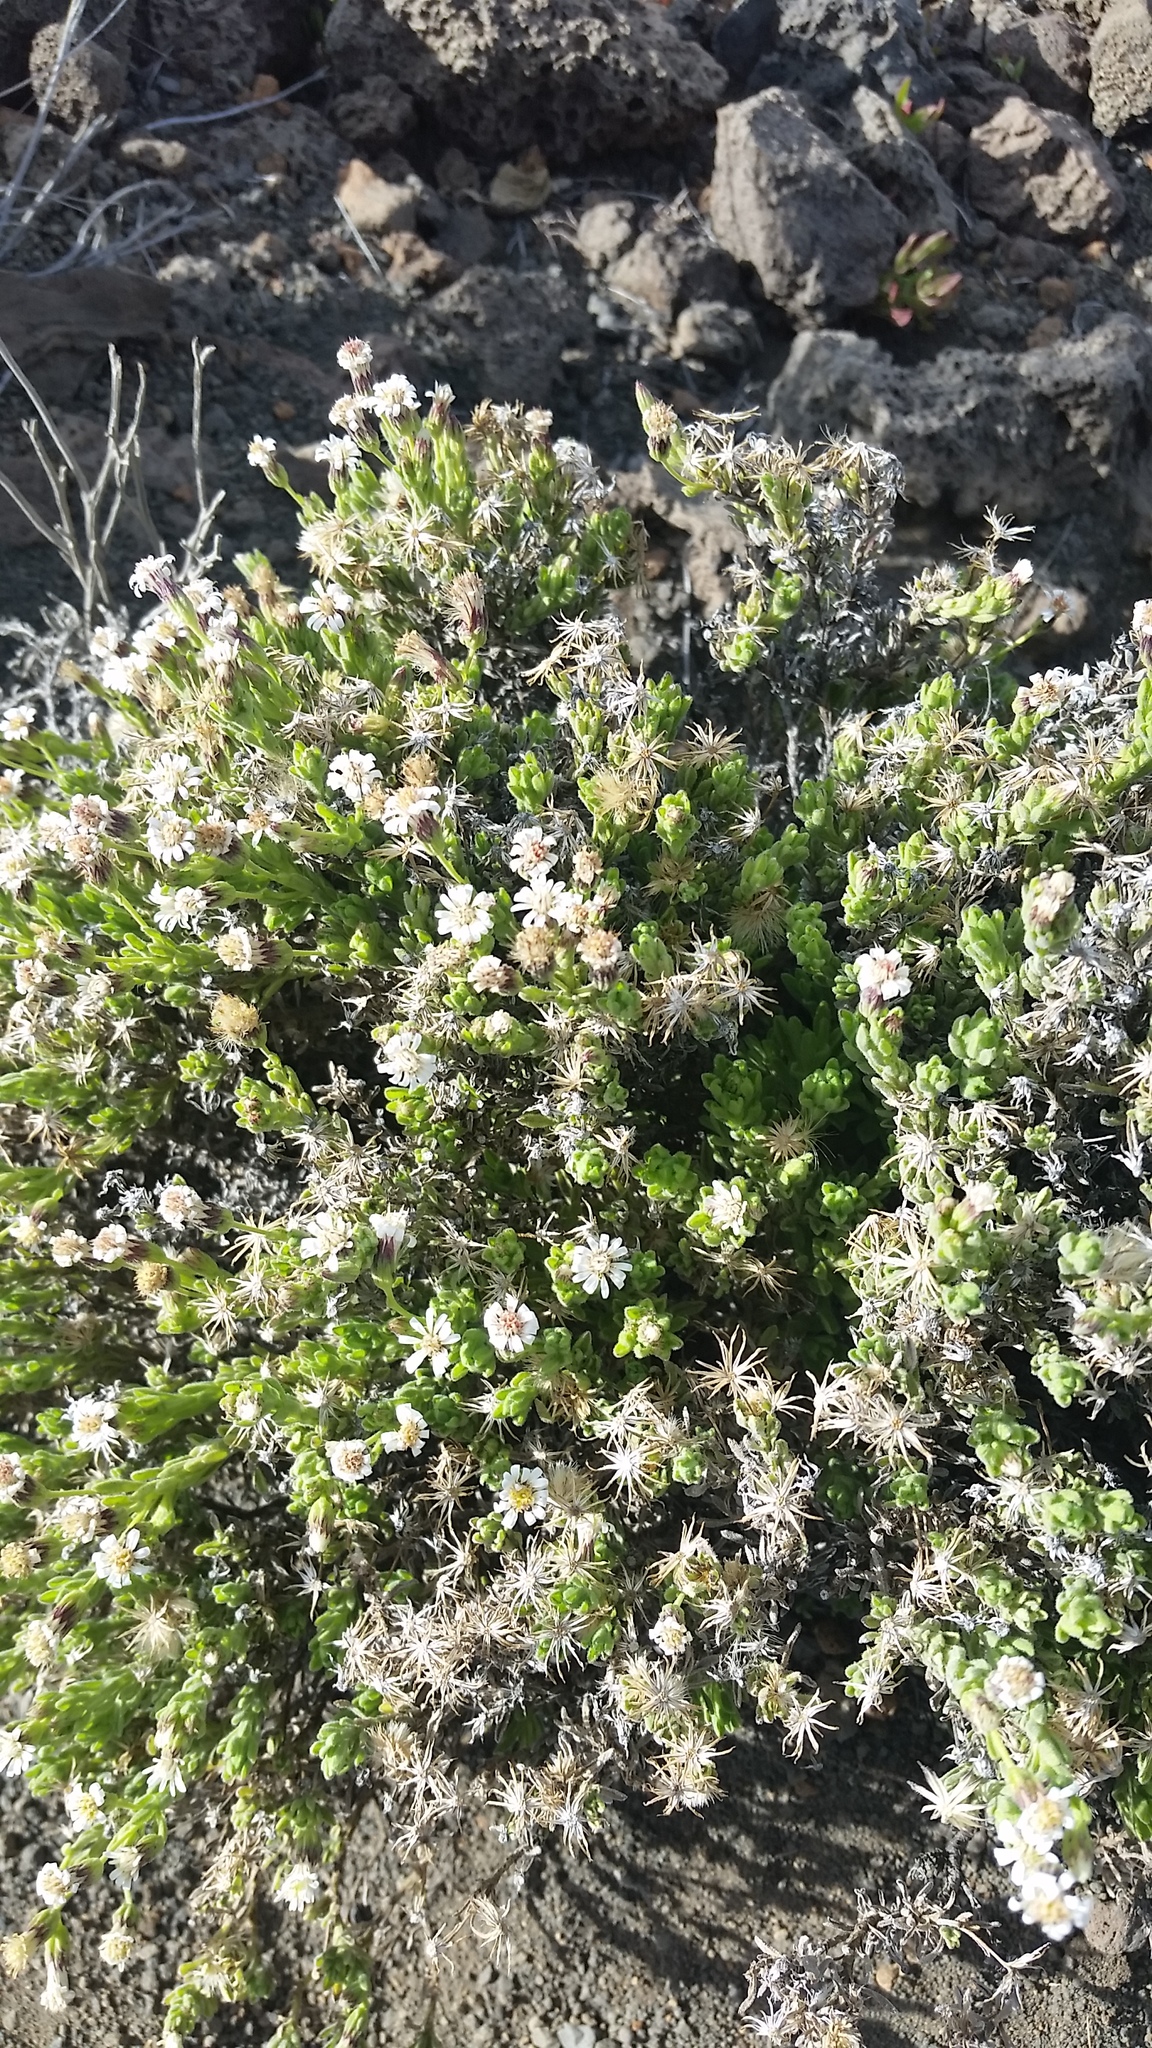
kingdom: Plantae
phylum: Tracheophyta
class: Magnoliopsida
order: Asterales
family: Asteraceae
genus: Tetramolopium
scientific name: Tetramolopium humile
